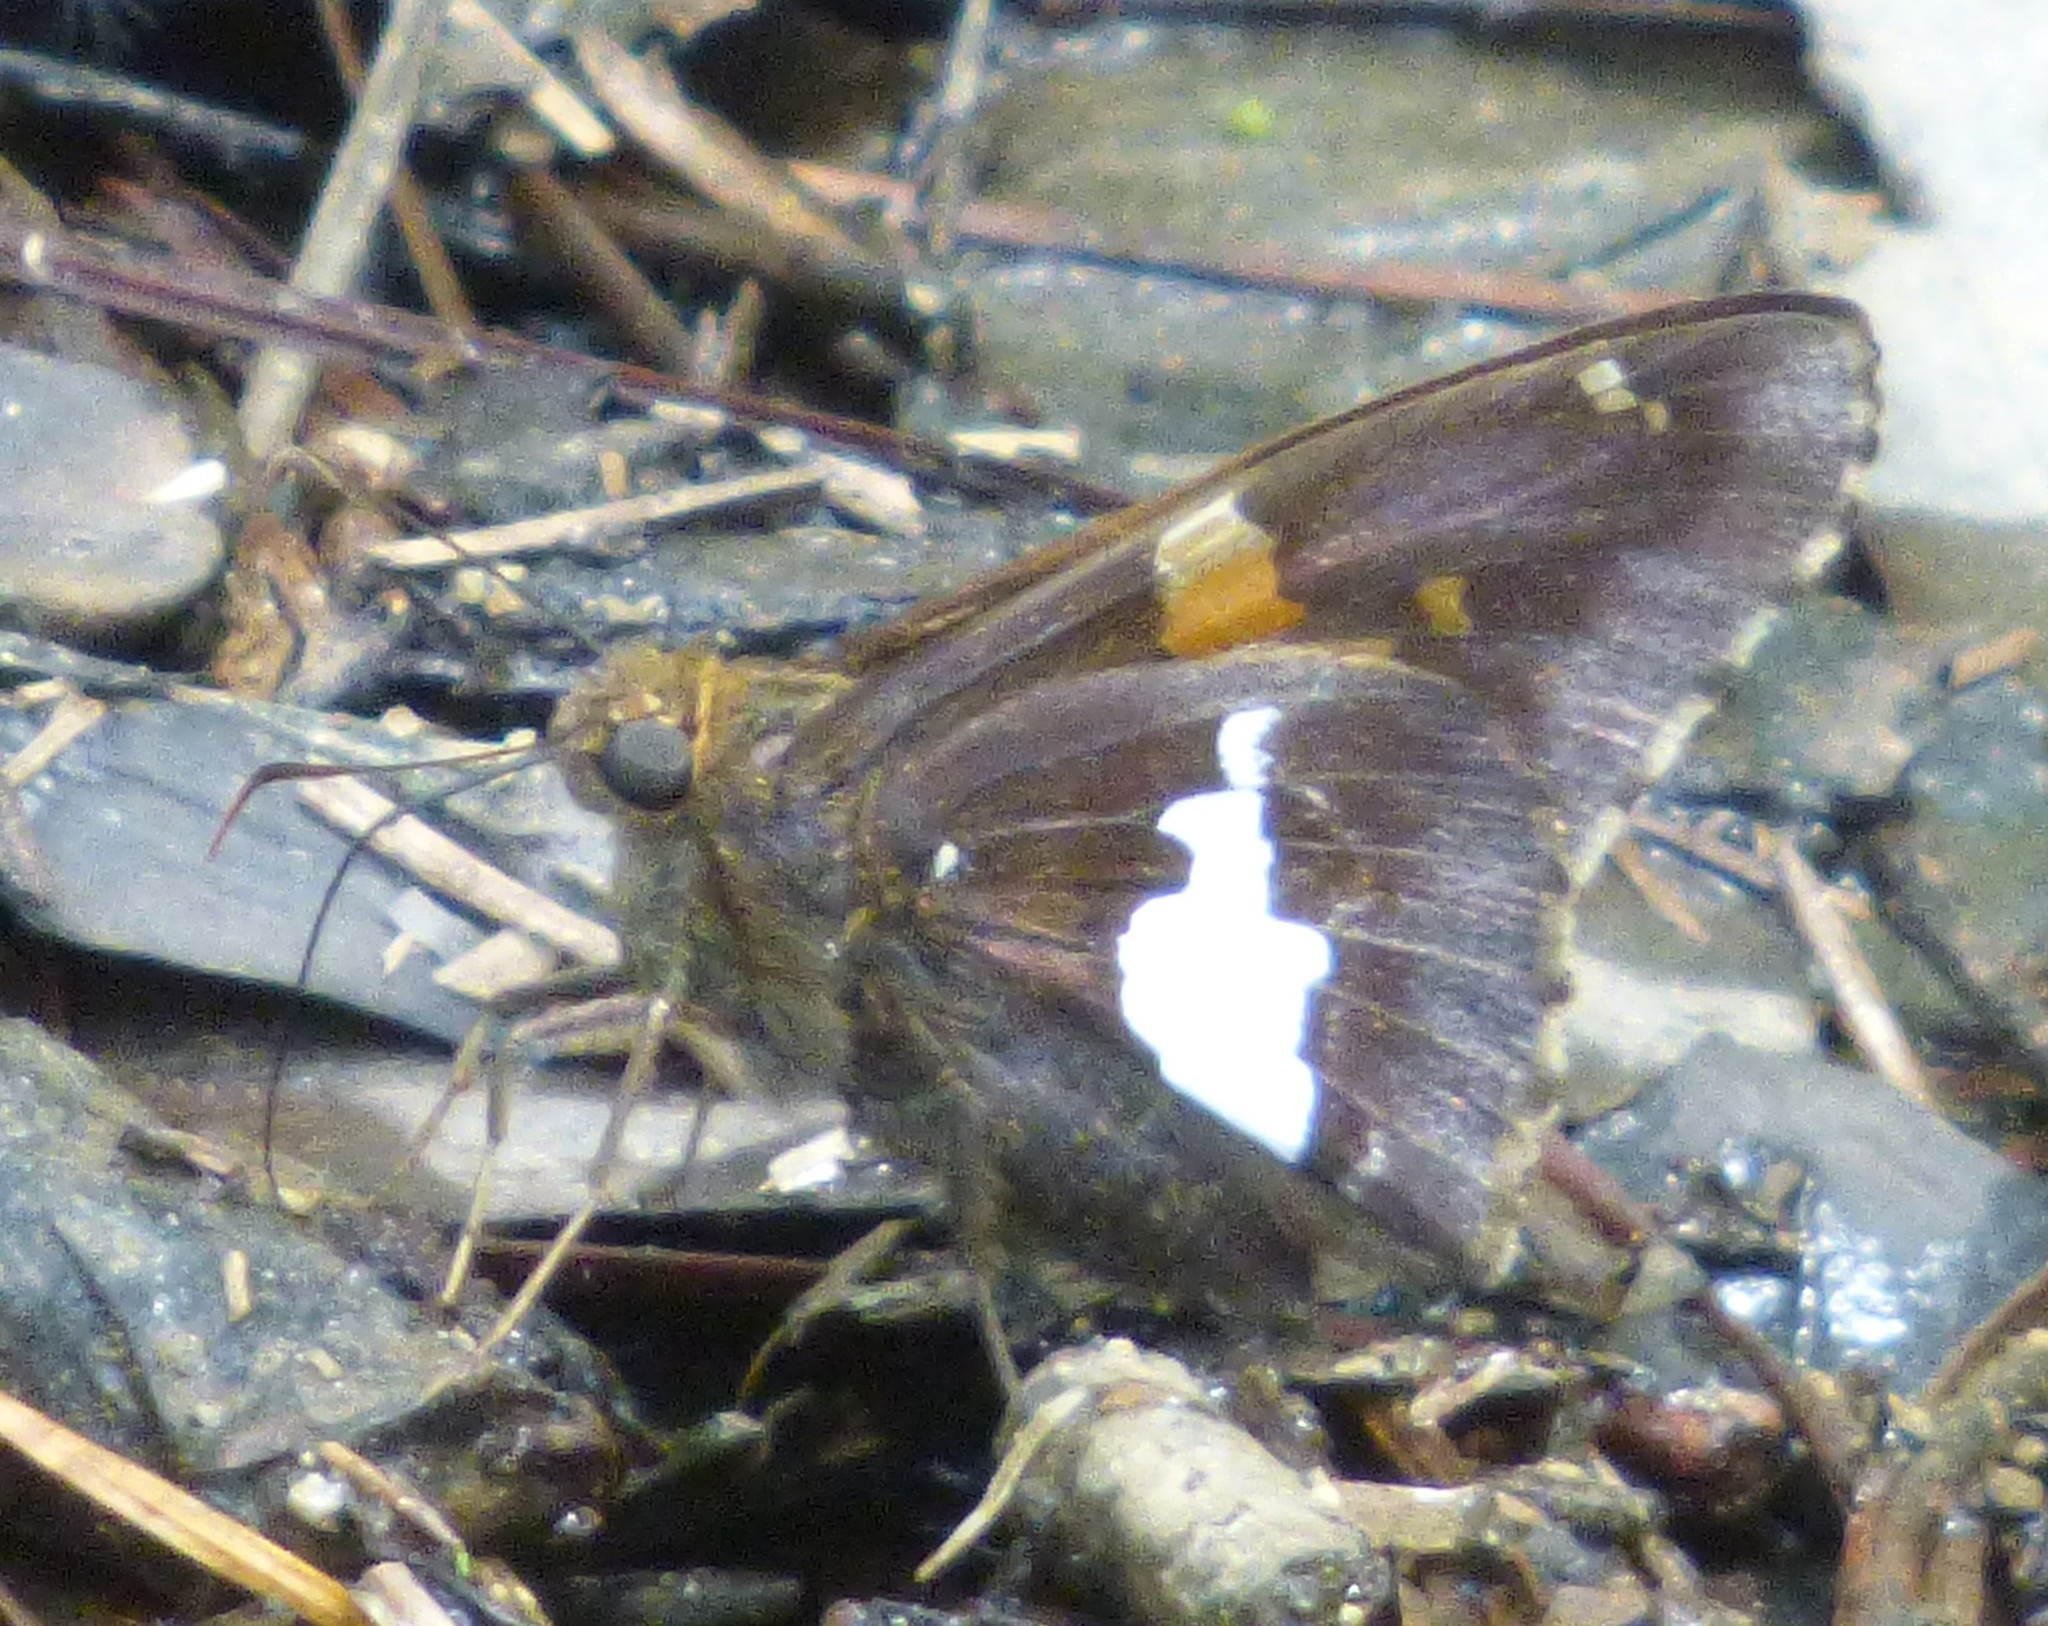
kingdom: Animalia
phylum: Arthropoda
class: Insecta
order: Lepidoptera
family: Hesperiidae
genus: Epargyreus
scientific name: Epargyreus clarus
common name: Silver-spotted skipper
